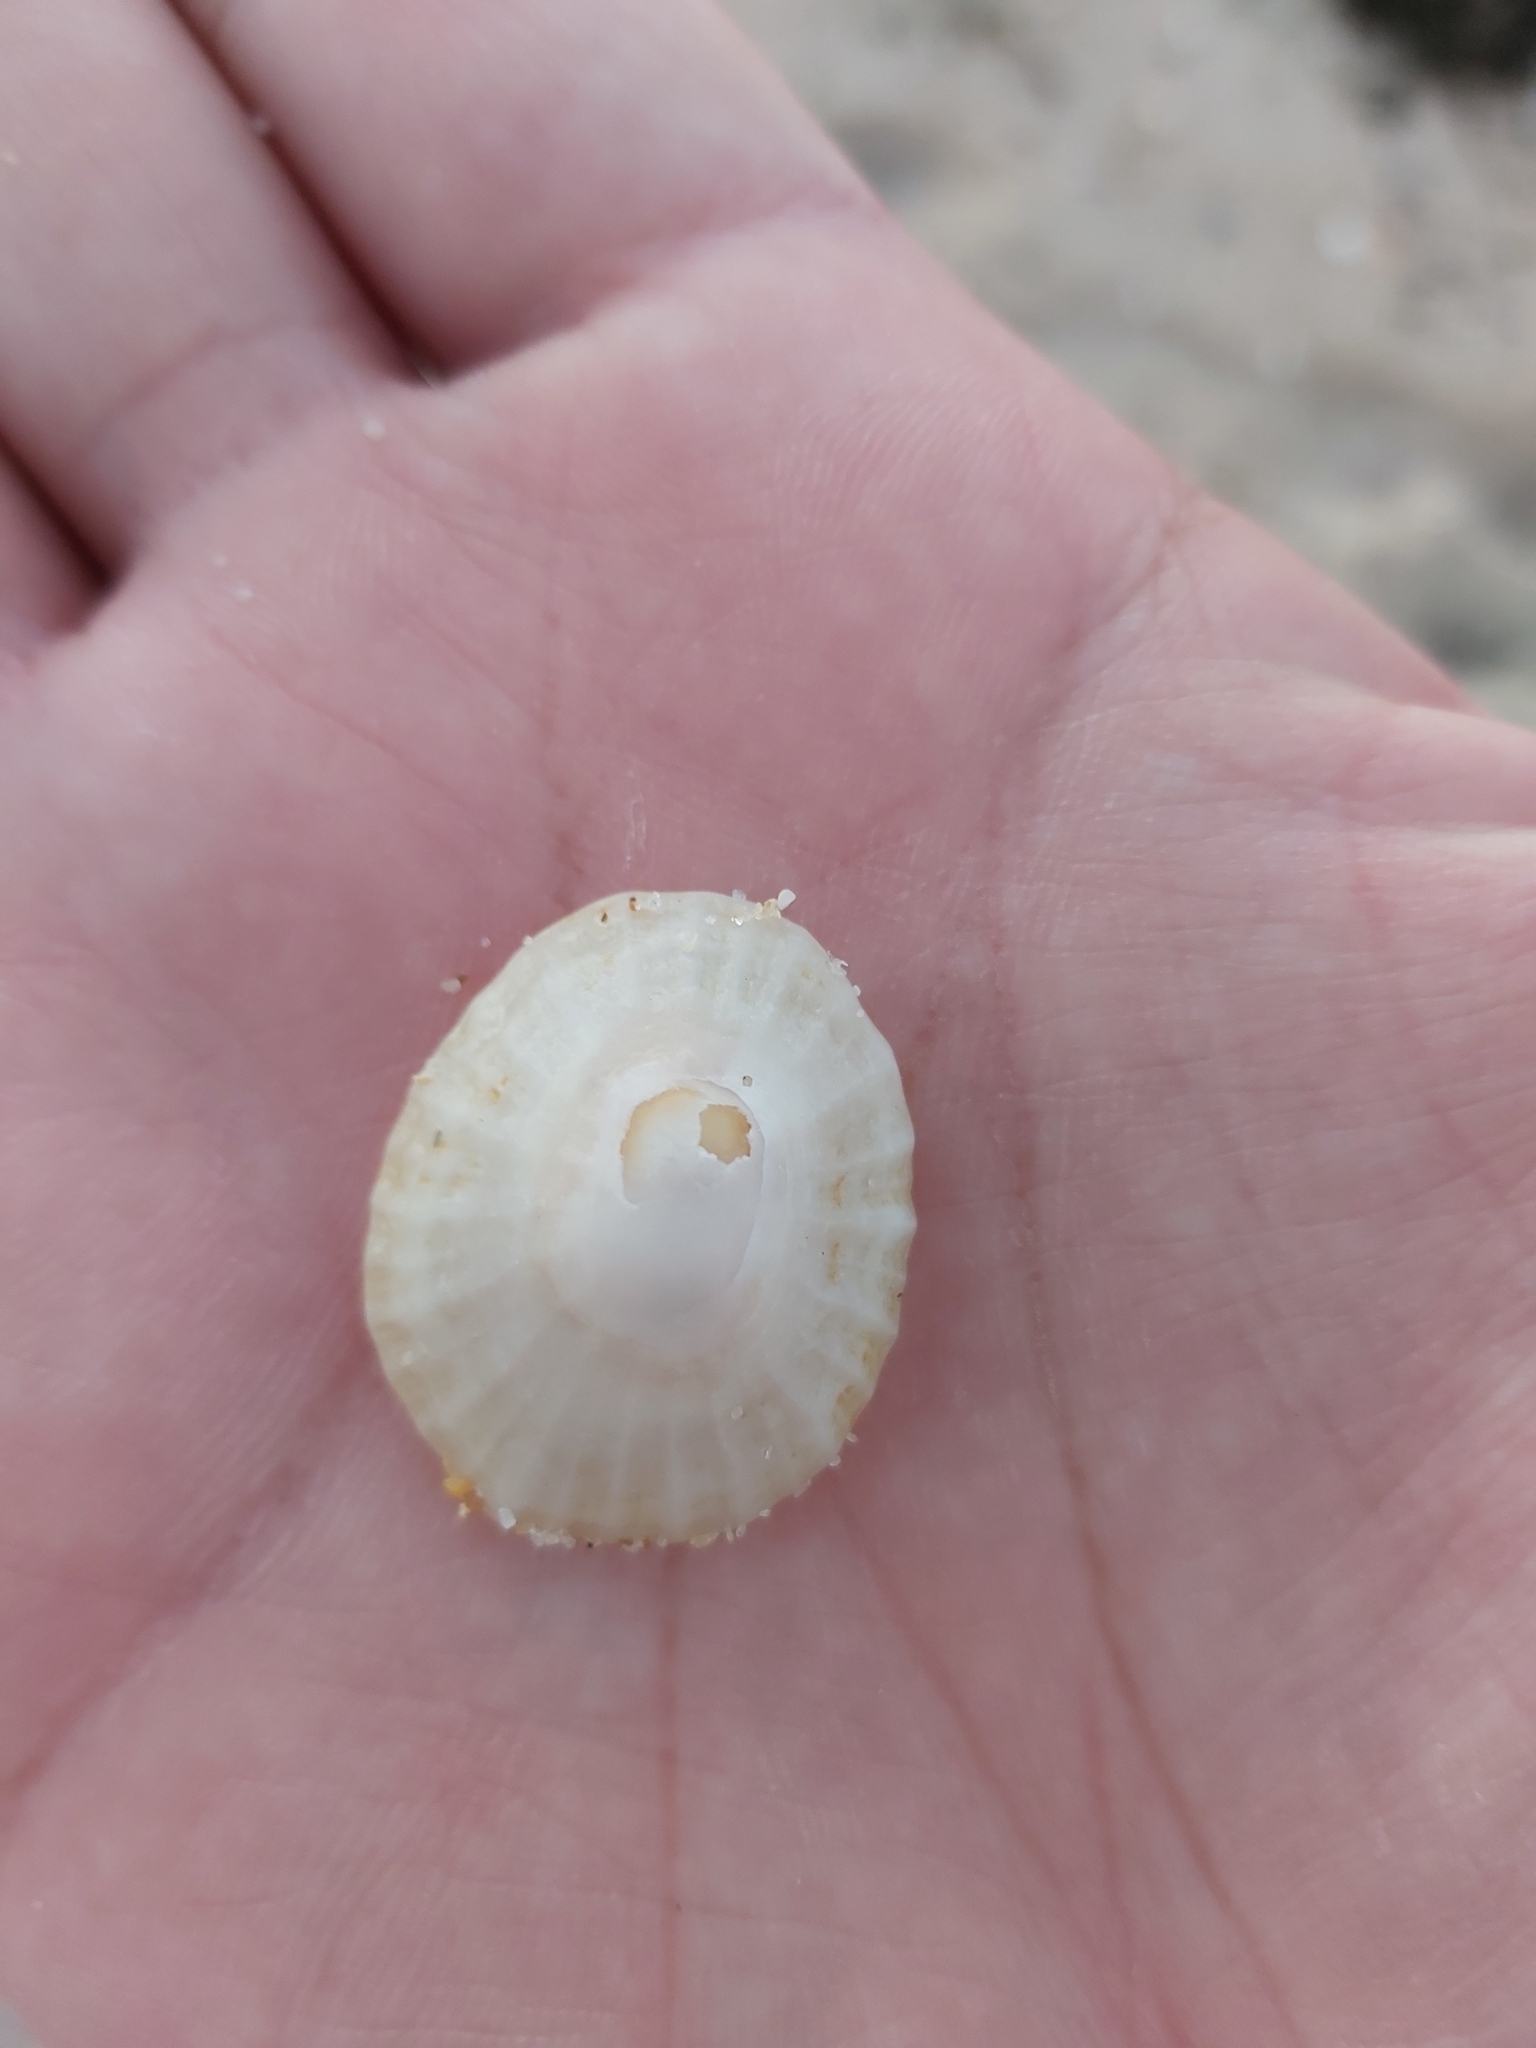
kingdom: Animalia
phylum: Mollusca
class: Gastropoda
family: Patellidae
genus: Scutellastra
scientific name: Scutellastra peronii
